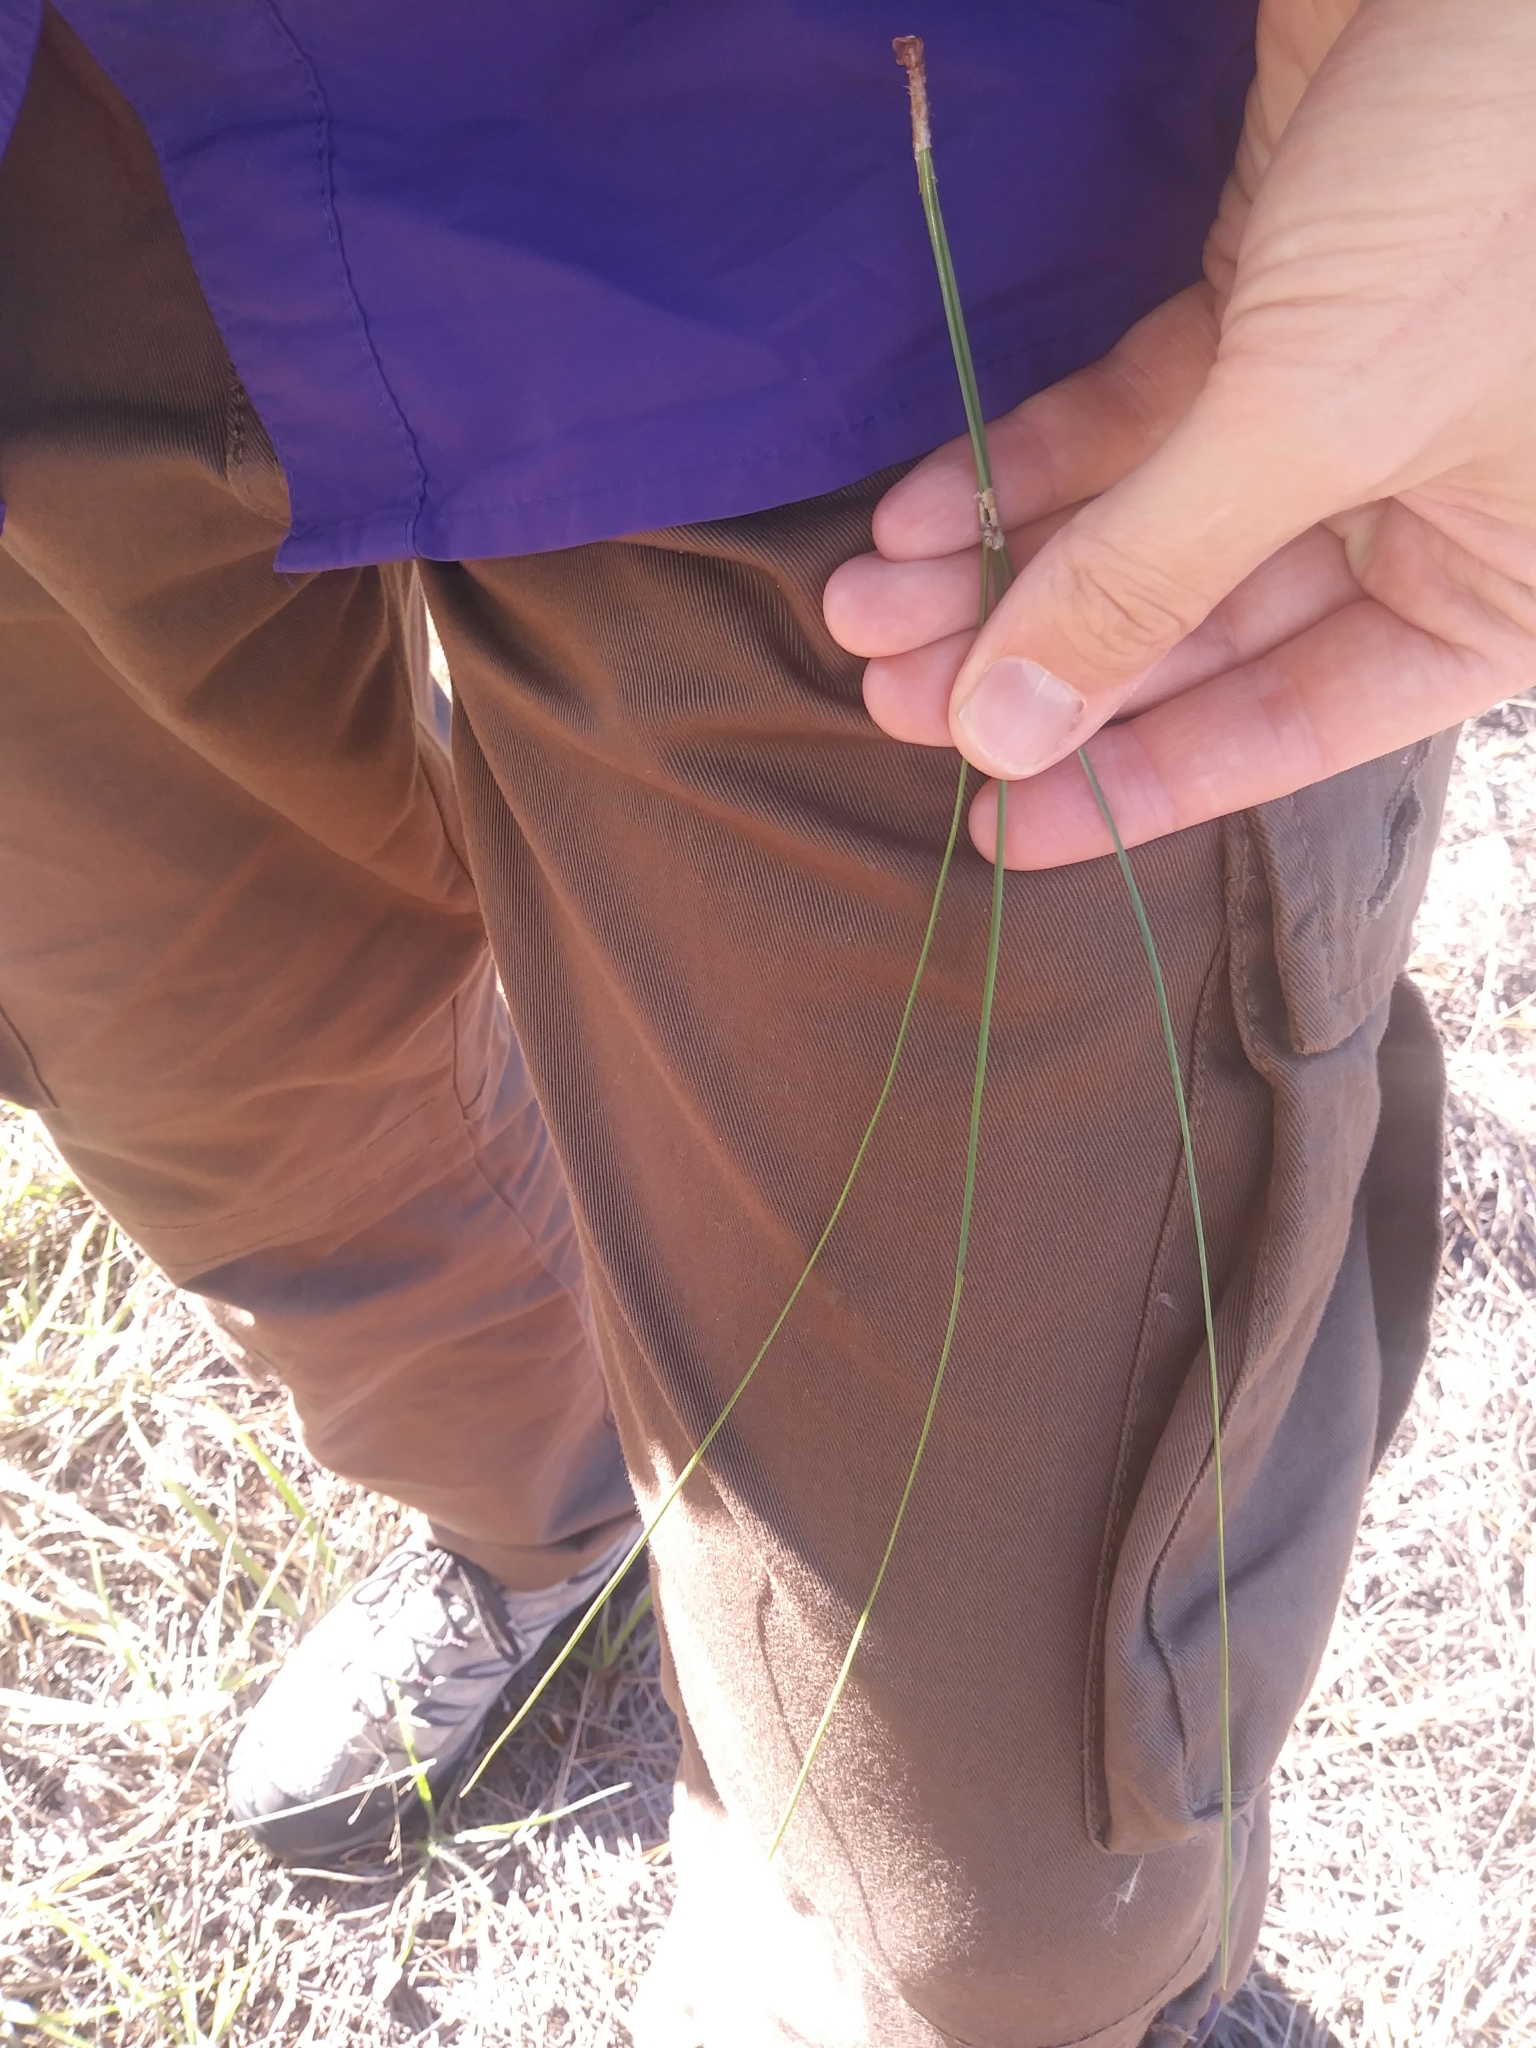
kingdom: Plantae
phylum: Tracheophyta
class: Pinopsida
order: Pinales
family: Pinaceae
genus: Pinus
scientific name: Pinus palustris
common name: Longleaf pine
